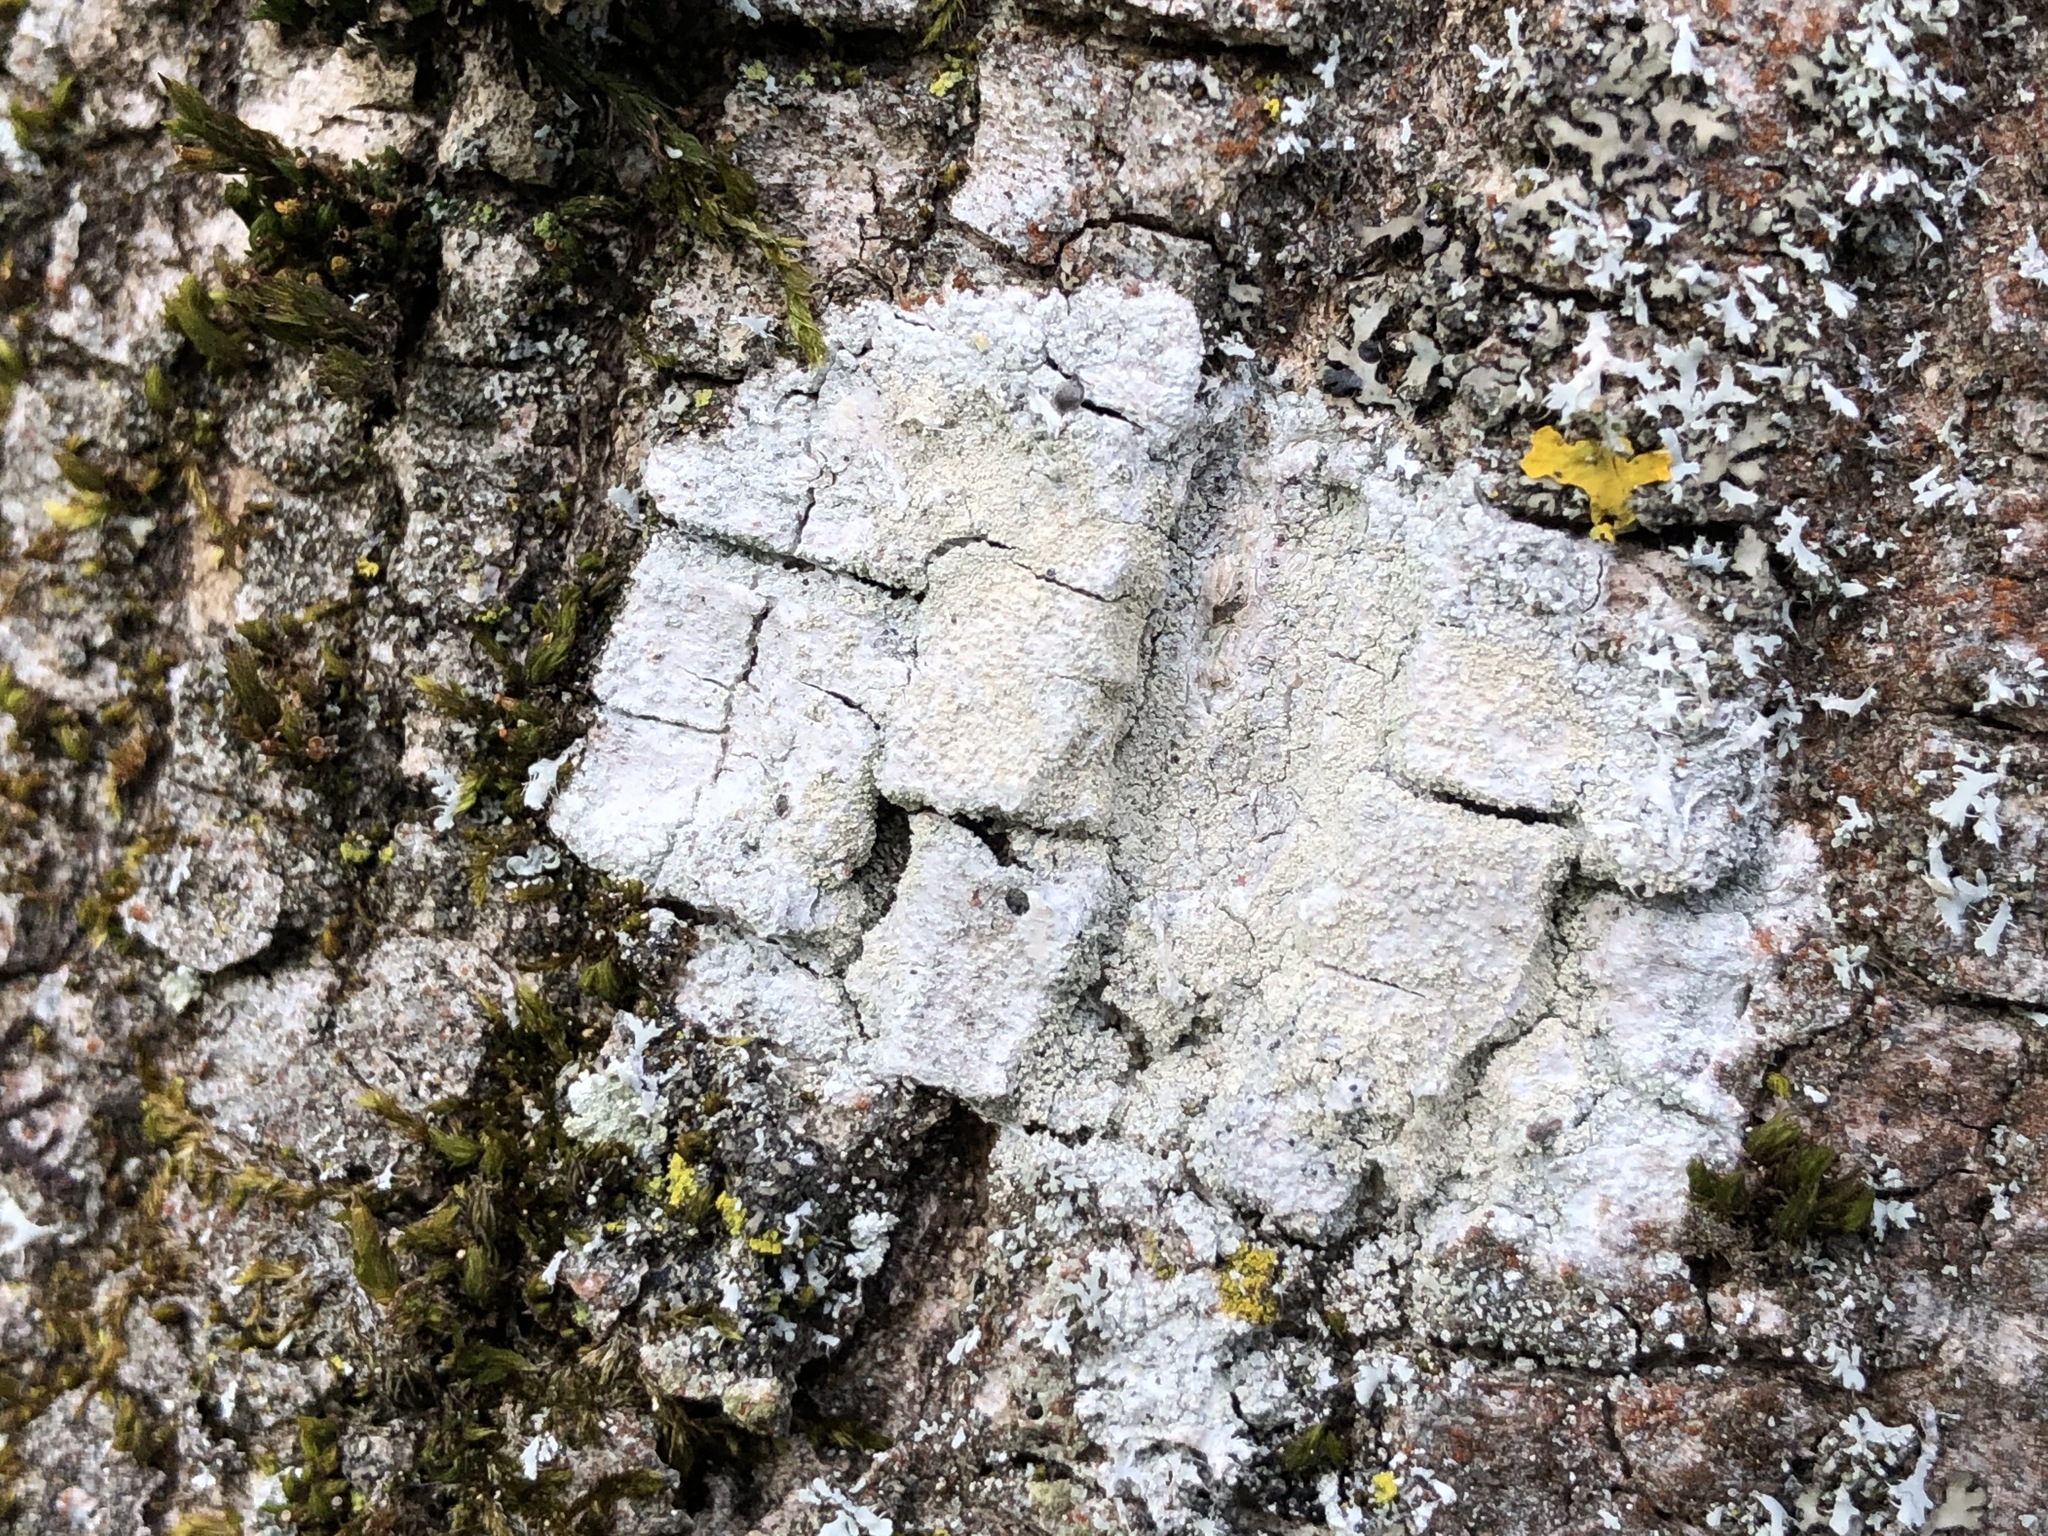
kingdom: Fungi
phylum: Ascomycota
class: Lecanoromycetes
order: Ostropales
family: Phlyctidaceae
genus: Phlyctis
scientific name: Phlyctis argena
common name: Whitewash lichen
